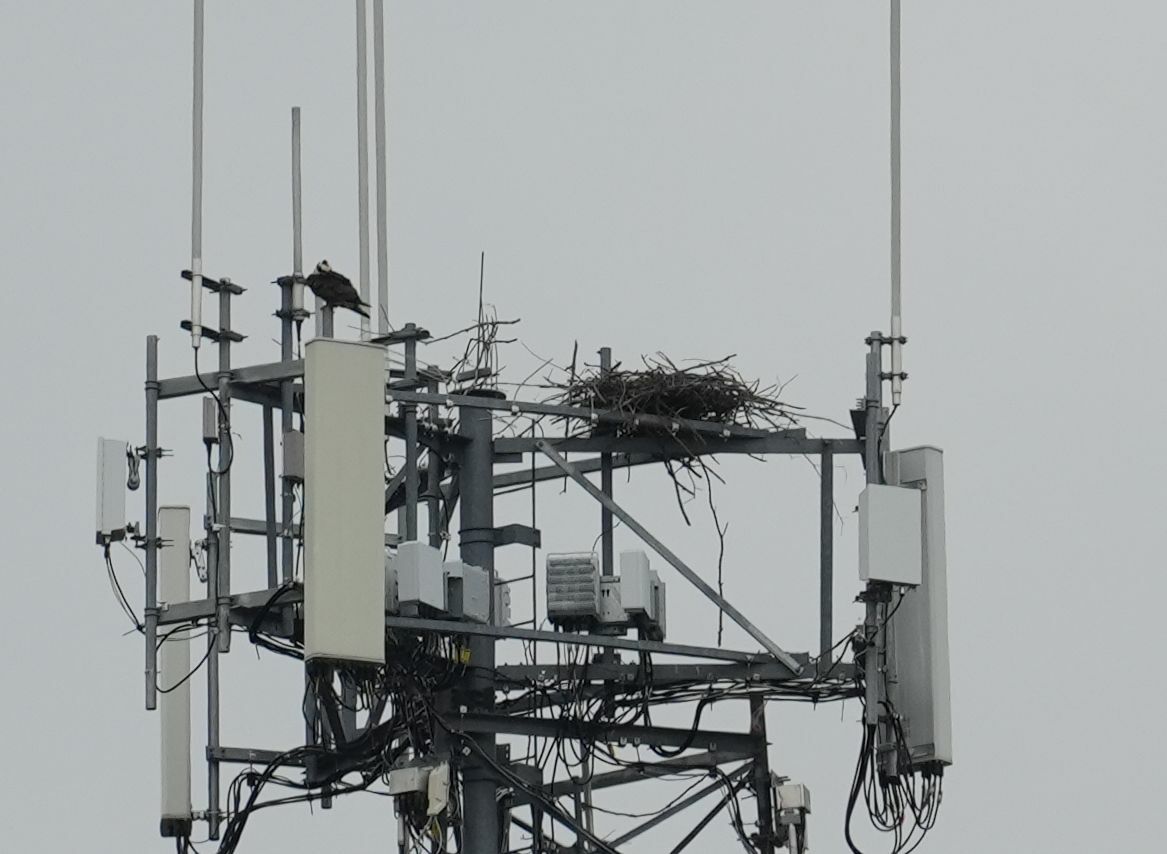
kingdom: Animalia
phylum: Chordata
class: Aves
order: Accipitriformes
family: Pandionidae
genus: Pandion
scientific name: Pandion haliaetus
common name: Osprey
